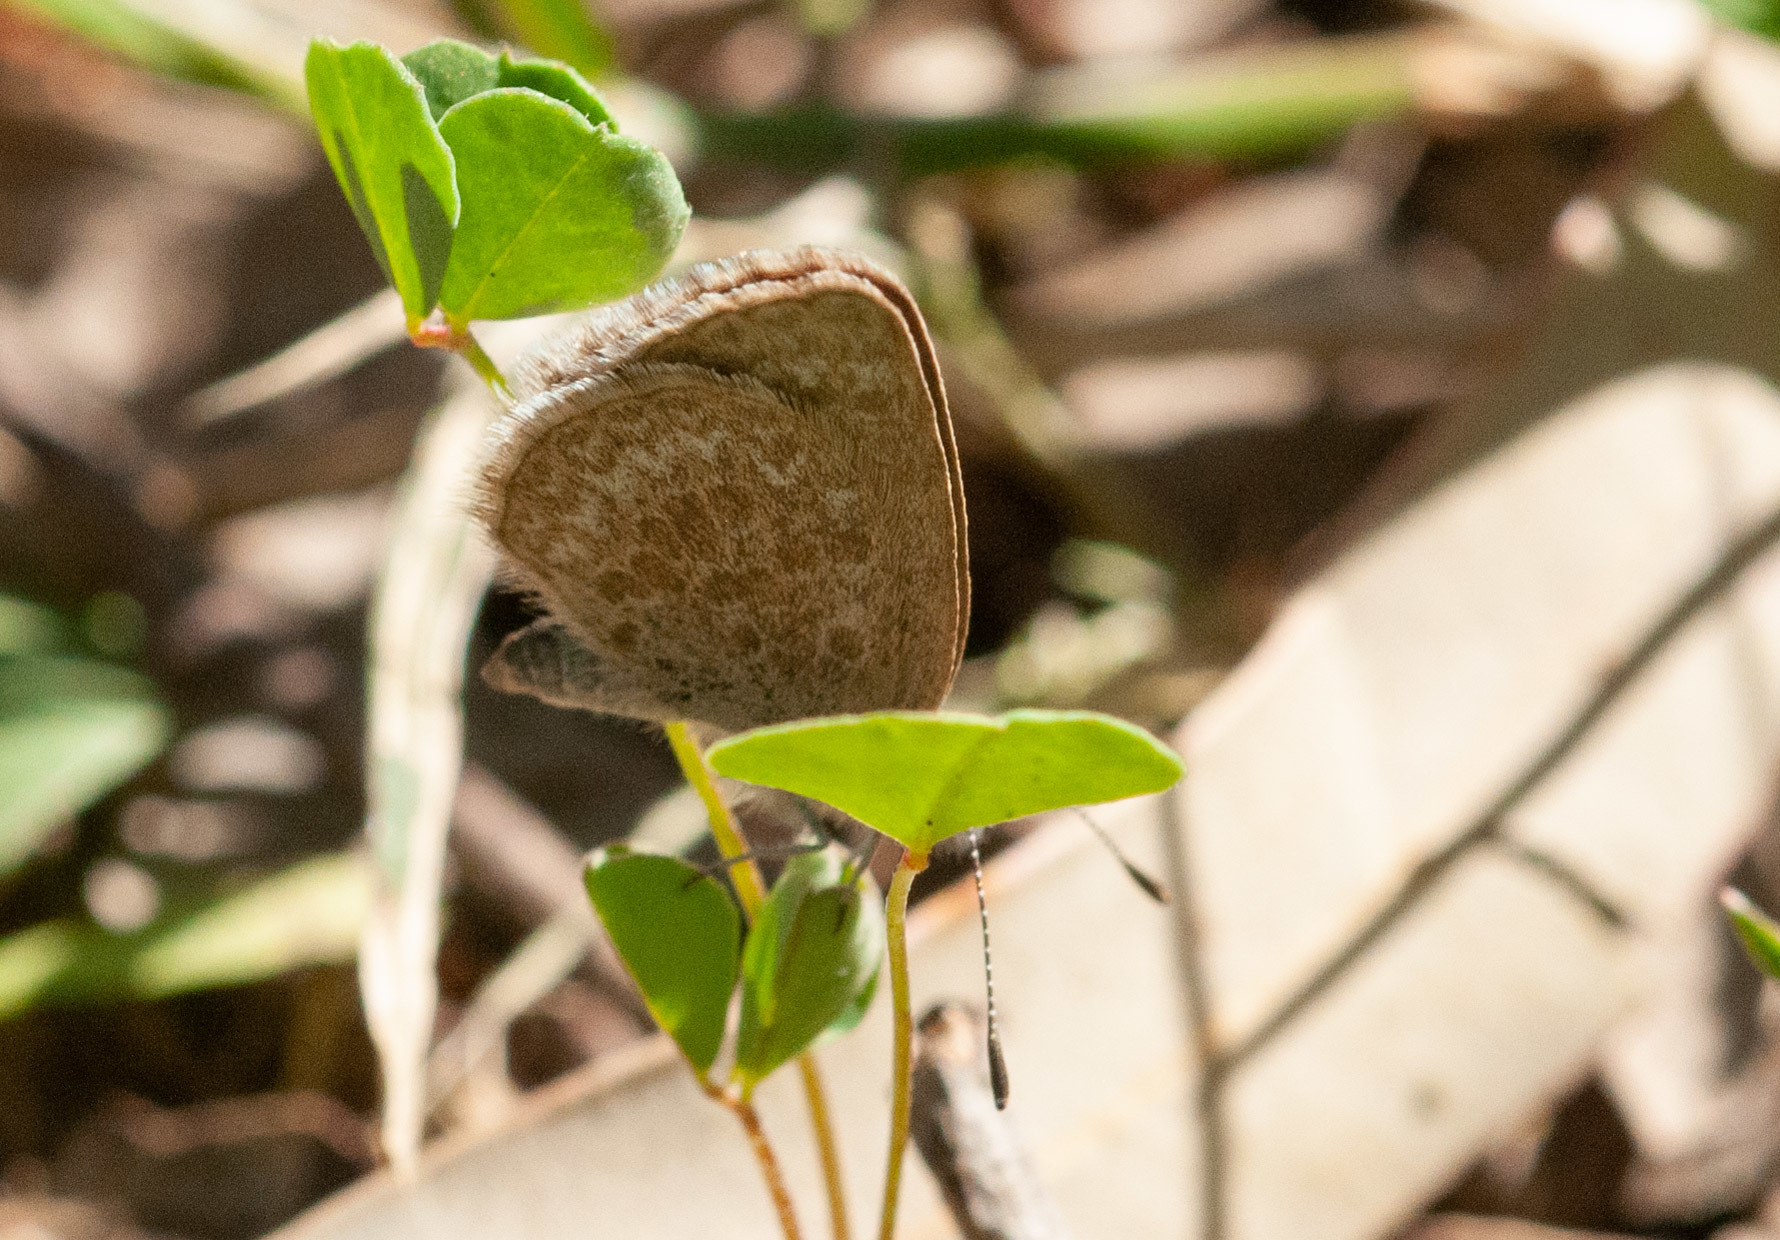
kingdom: Animalia
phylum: Arthropoda
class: Insecta
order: Lepidoptera
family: Lycaenidae
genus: Zizina
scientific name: Zizina labradus
